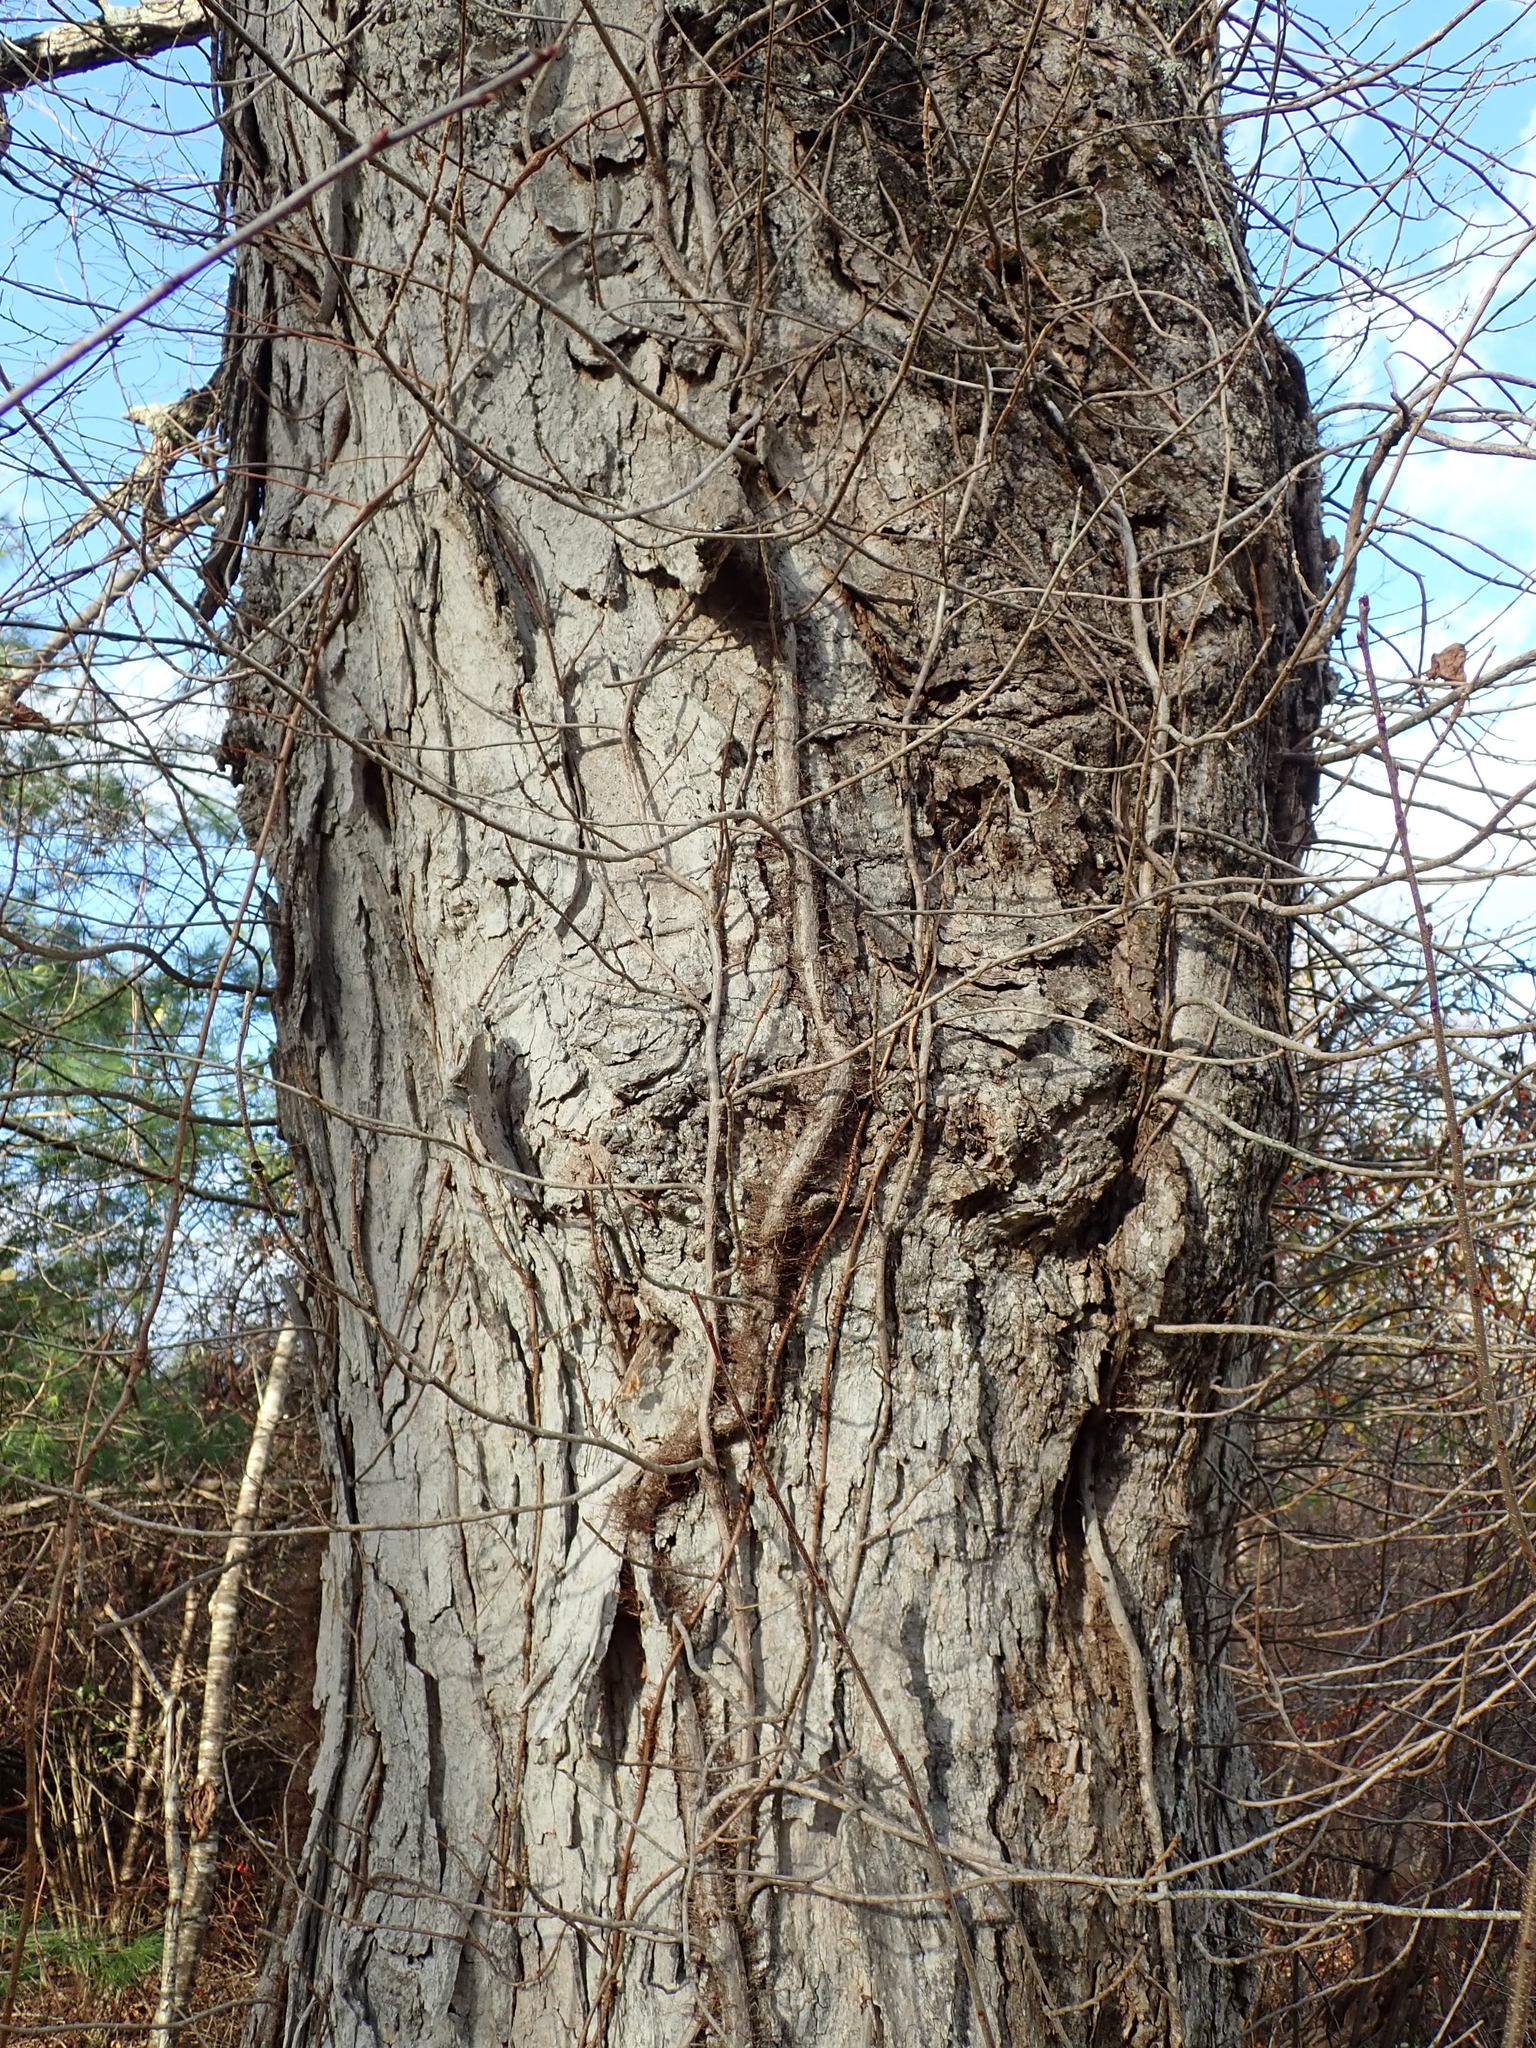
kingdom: Plantae
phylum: Tracheophyta
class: Magnoliopsida
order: Sapindales
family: Anacardiaceae
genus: Toxicodendron
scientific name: Toxicodendron radicans
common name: Poison ivy
